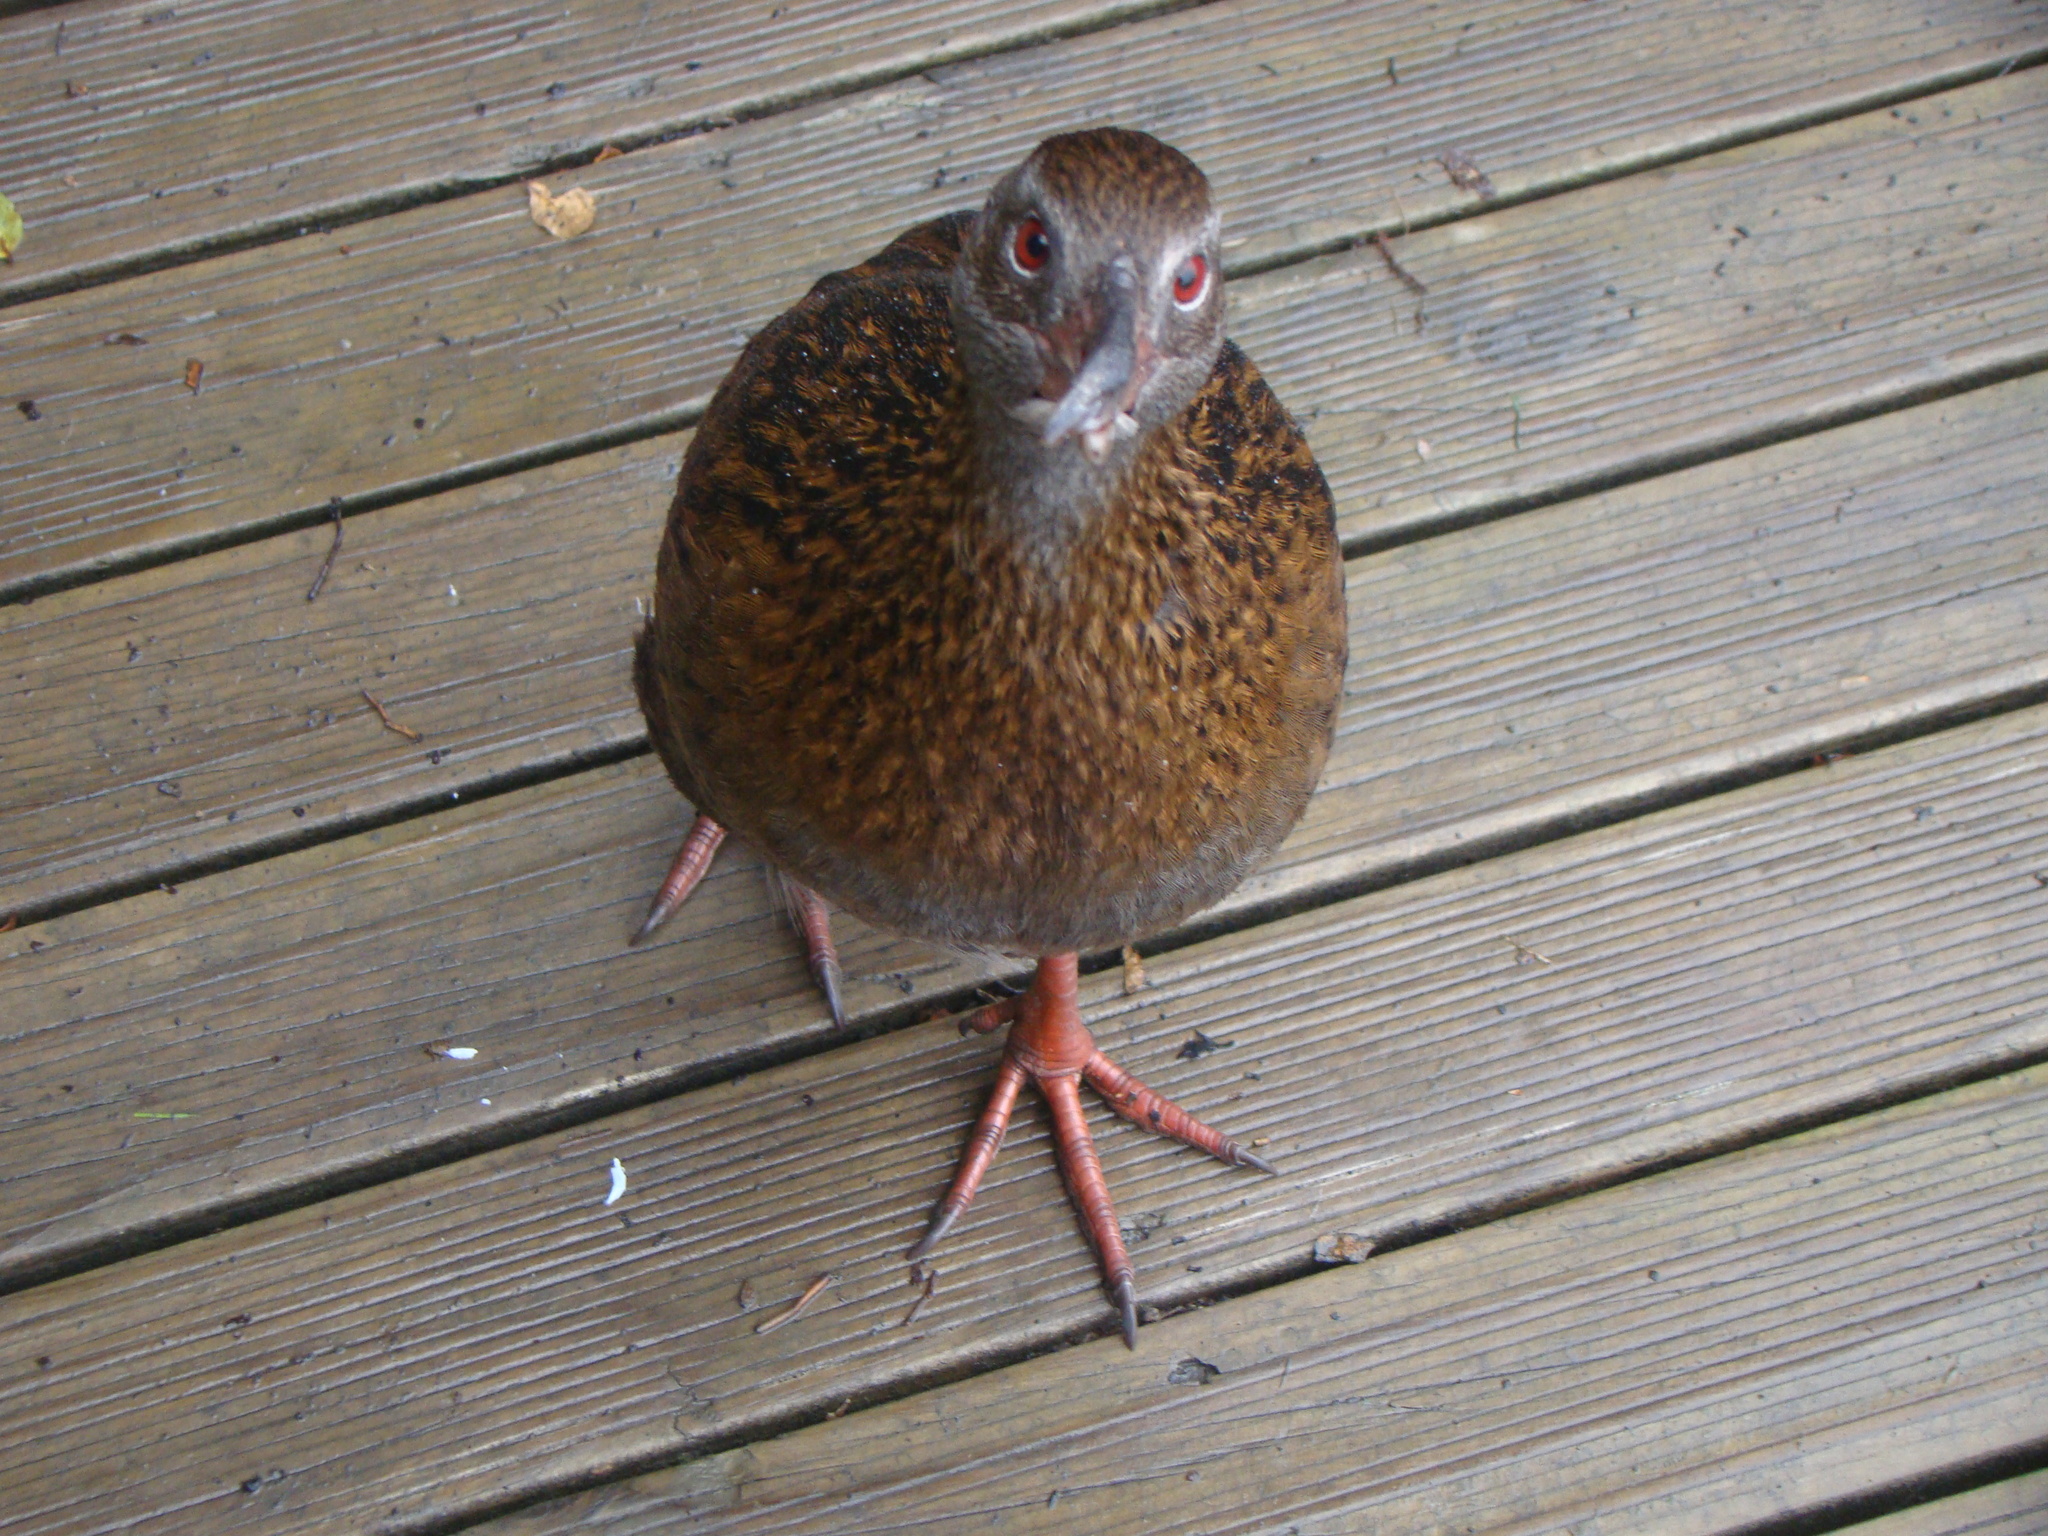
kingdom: Animalia
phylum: Chordata
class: Aves
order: Gruiformes
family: Rallidae
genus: Gallirallus
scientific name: Gallirallus australis
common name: Weka
